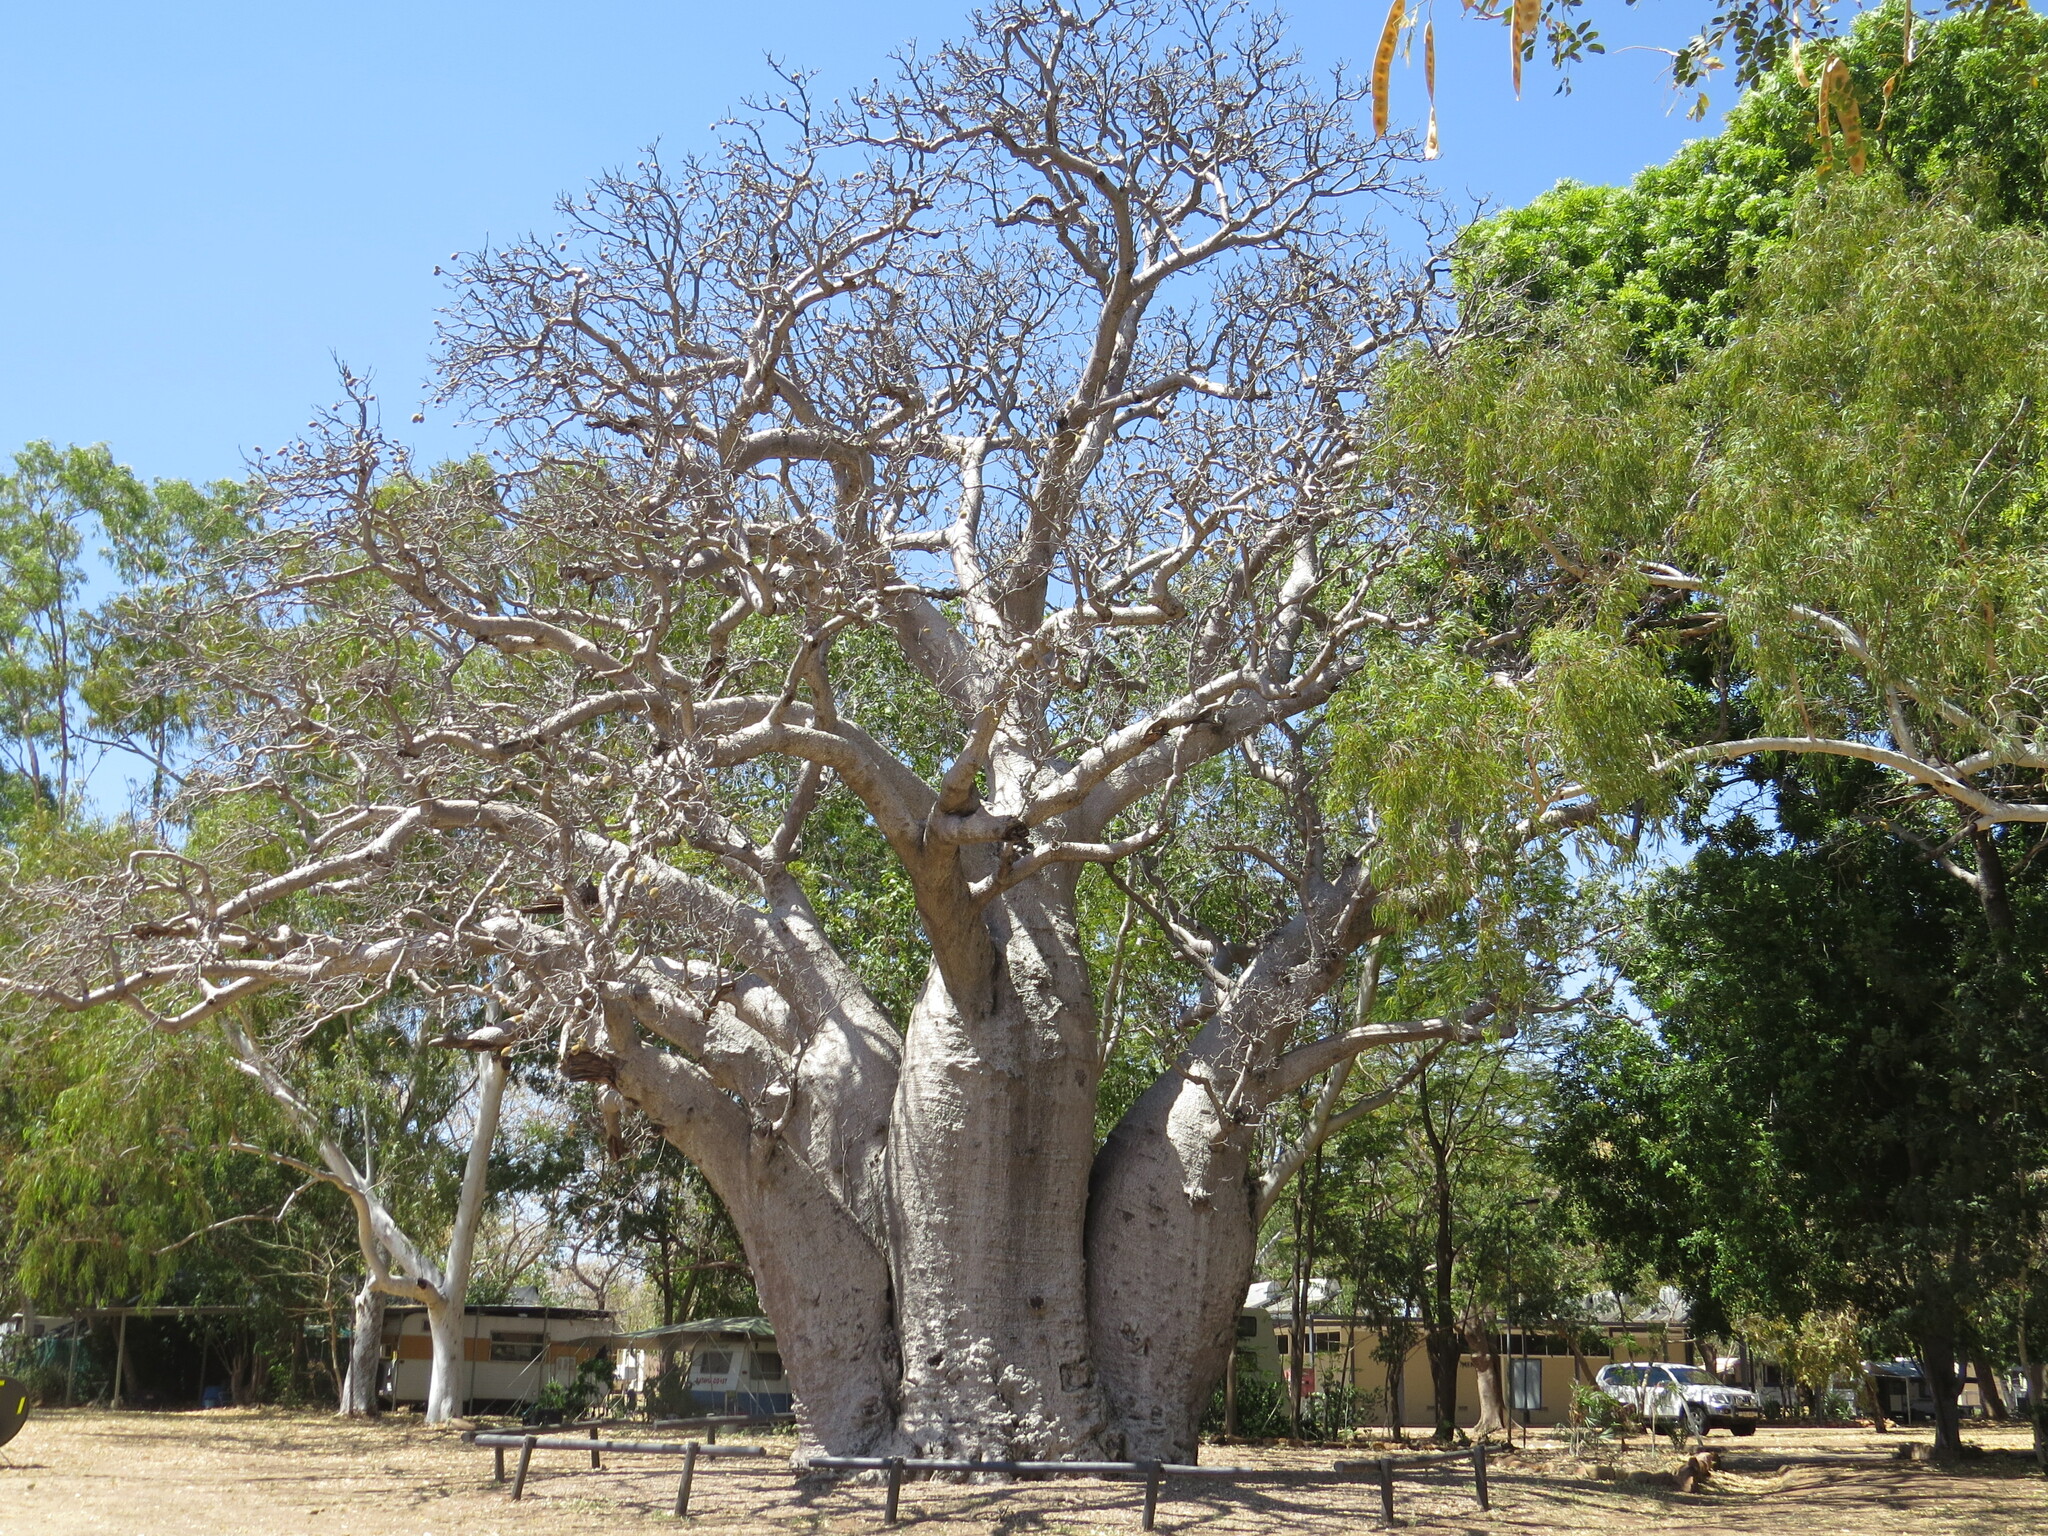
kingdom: Plantae
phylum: Tracheophyta
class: Magnoliopsida
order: Malvales
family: Malvaceae
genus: Adansonia
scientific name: Adansonia gregorii
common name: Australian baobab
